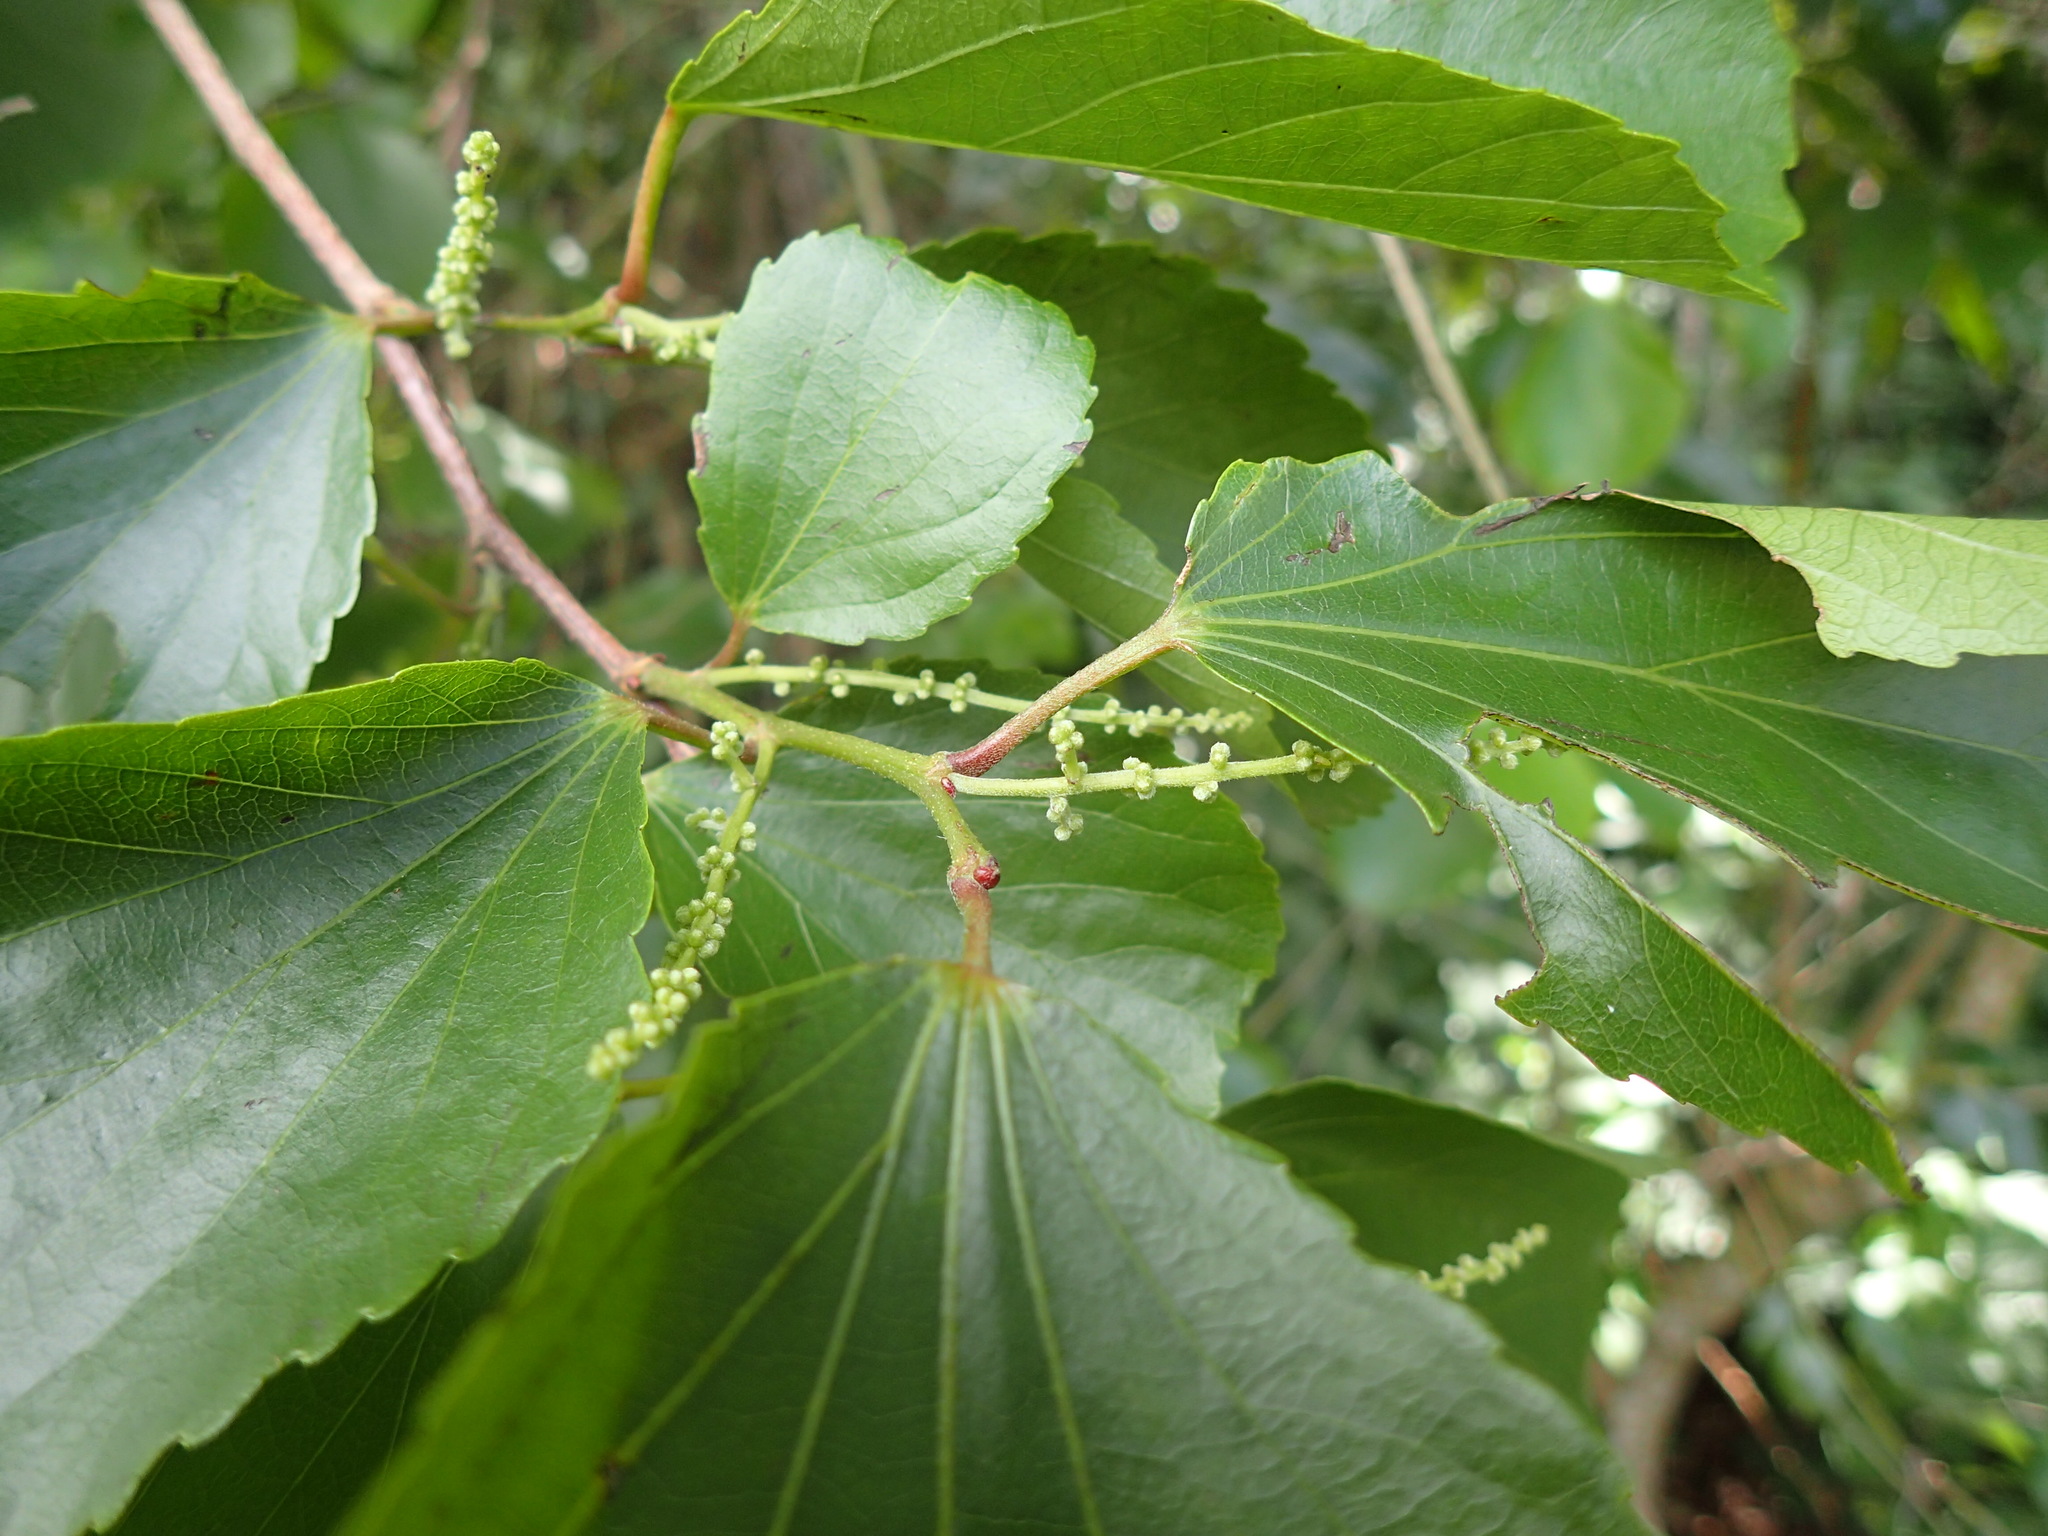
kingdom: Plantae
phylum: Tracheophyta
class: Magnoliopsida
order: Malpighiales
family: Salicaceae
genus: Trimeria
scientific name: Trimeria grandifolia
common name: Wild mulberry
